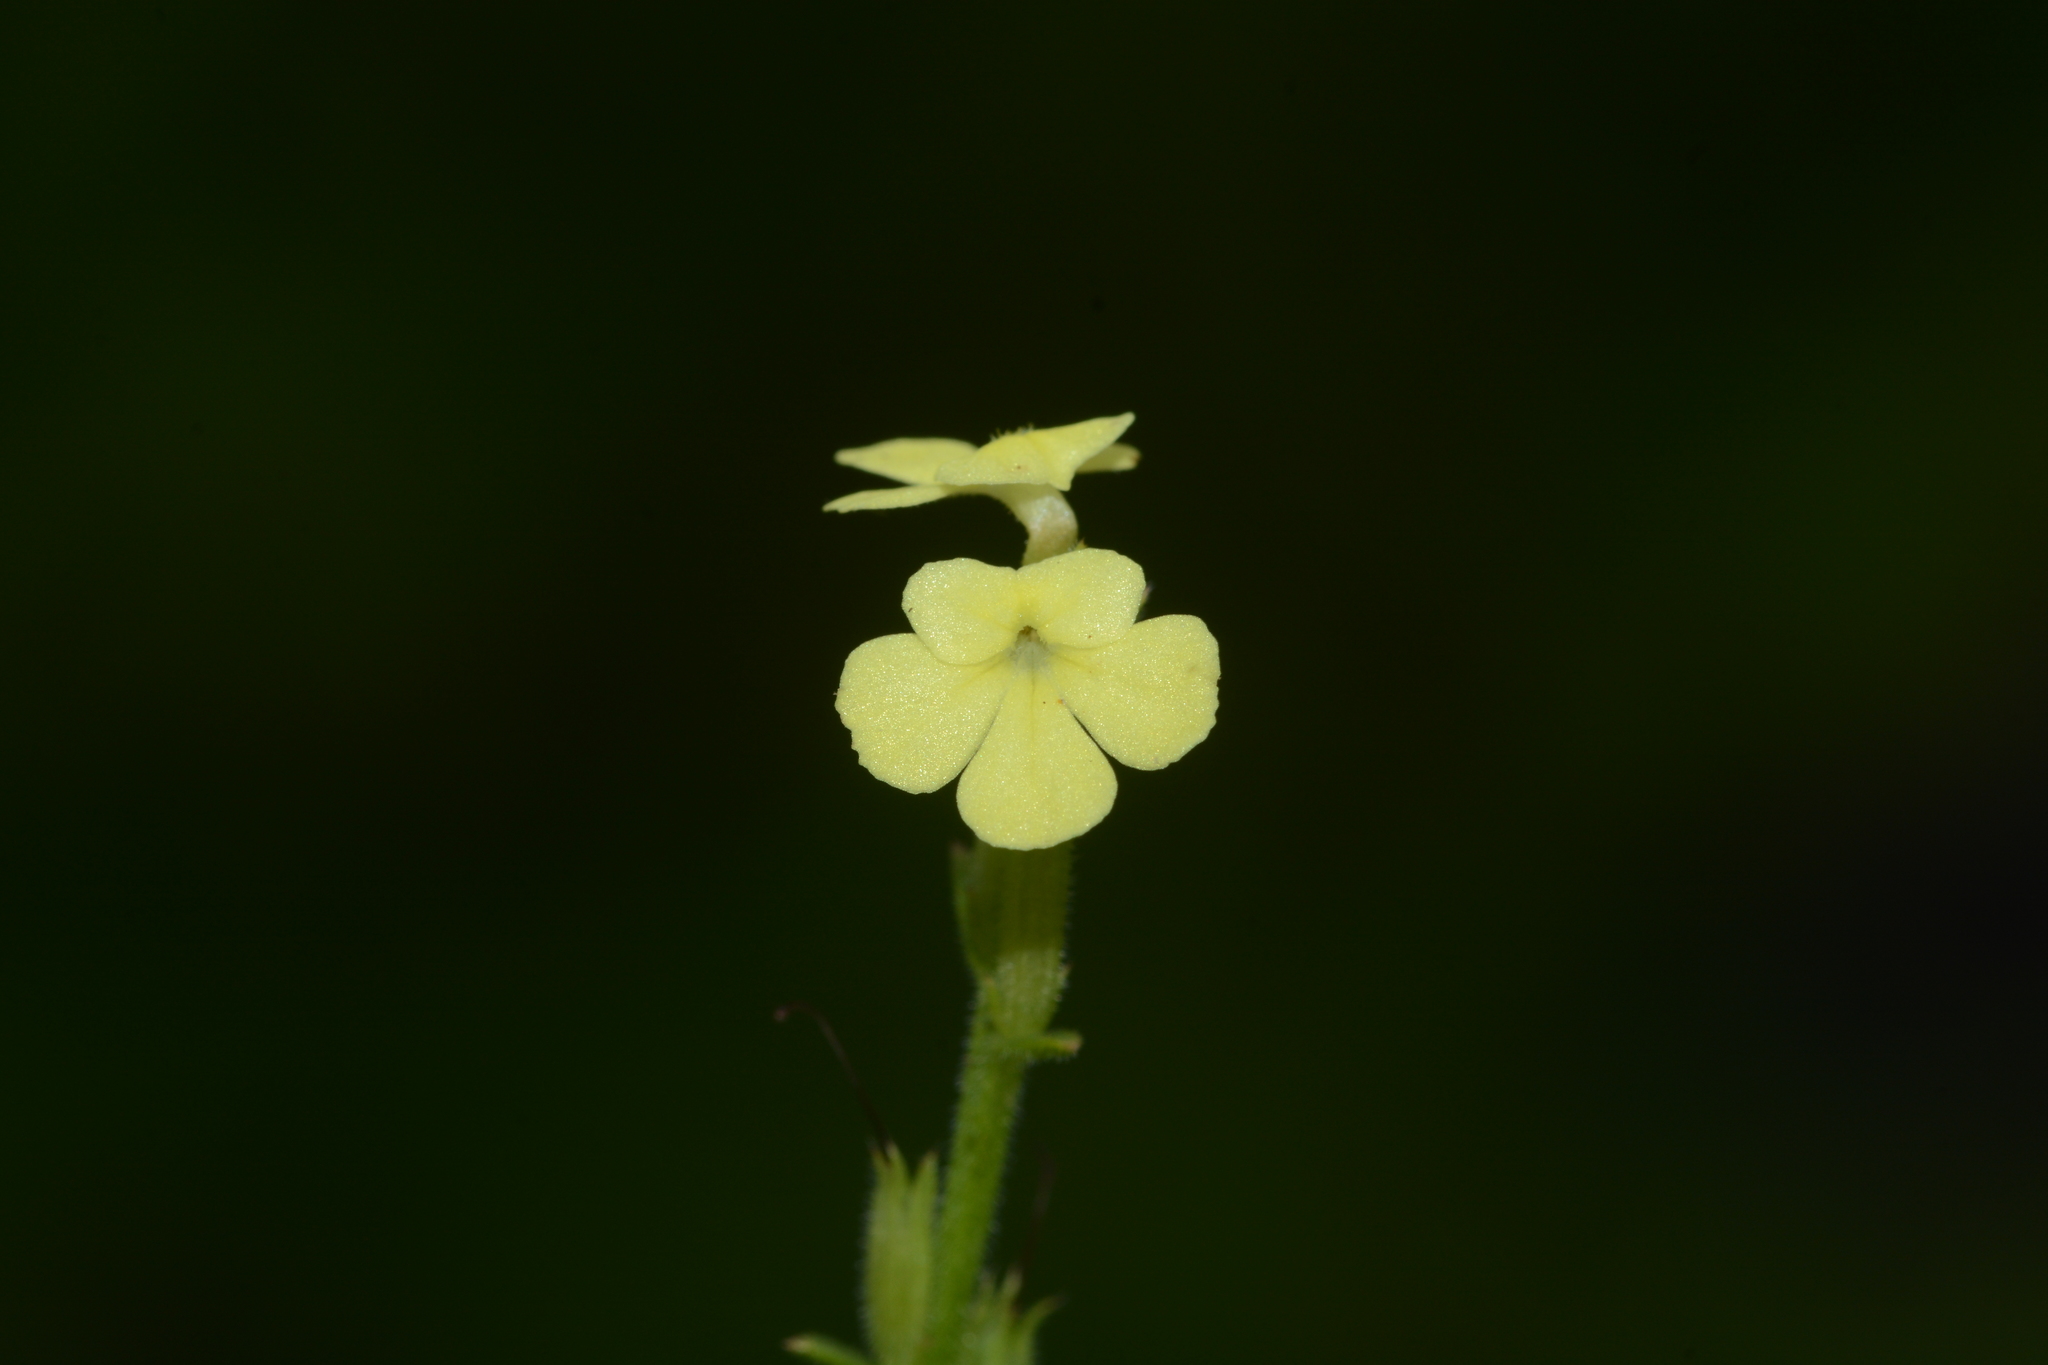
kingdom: Plantae
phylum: Tracheophyta
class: Magnoliopsida
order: Lamiales
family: Orobanchaceae
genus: Striga
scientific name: Striga asiatica
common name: Asiatic witchweed
